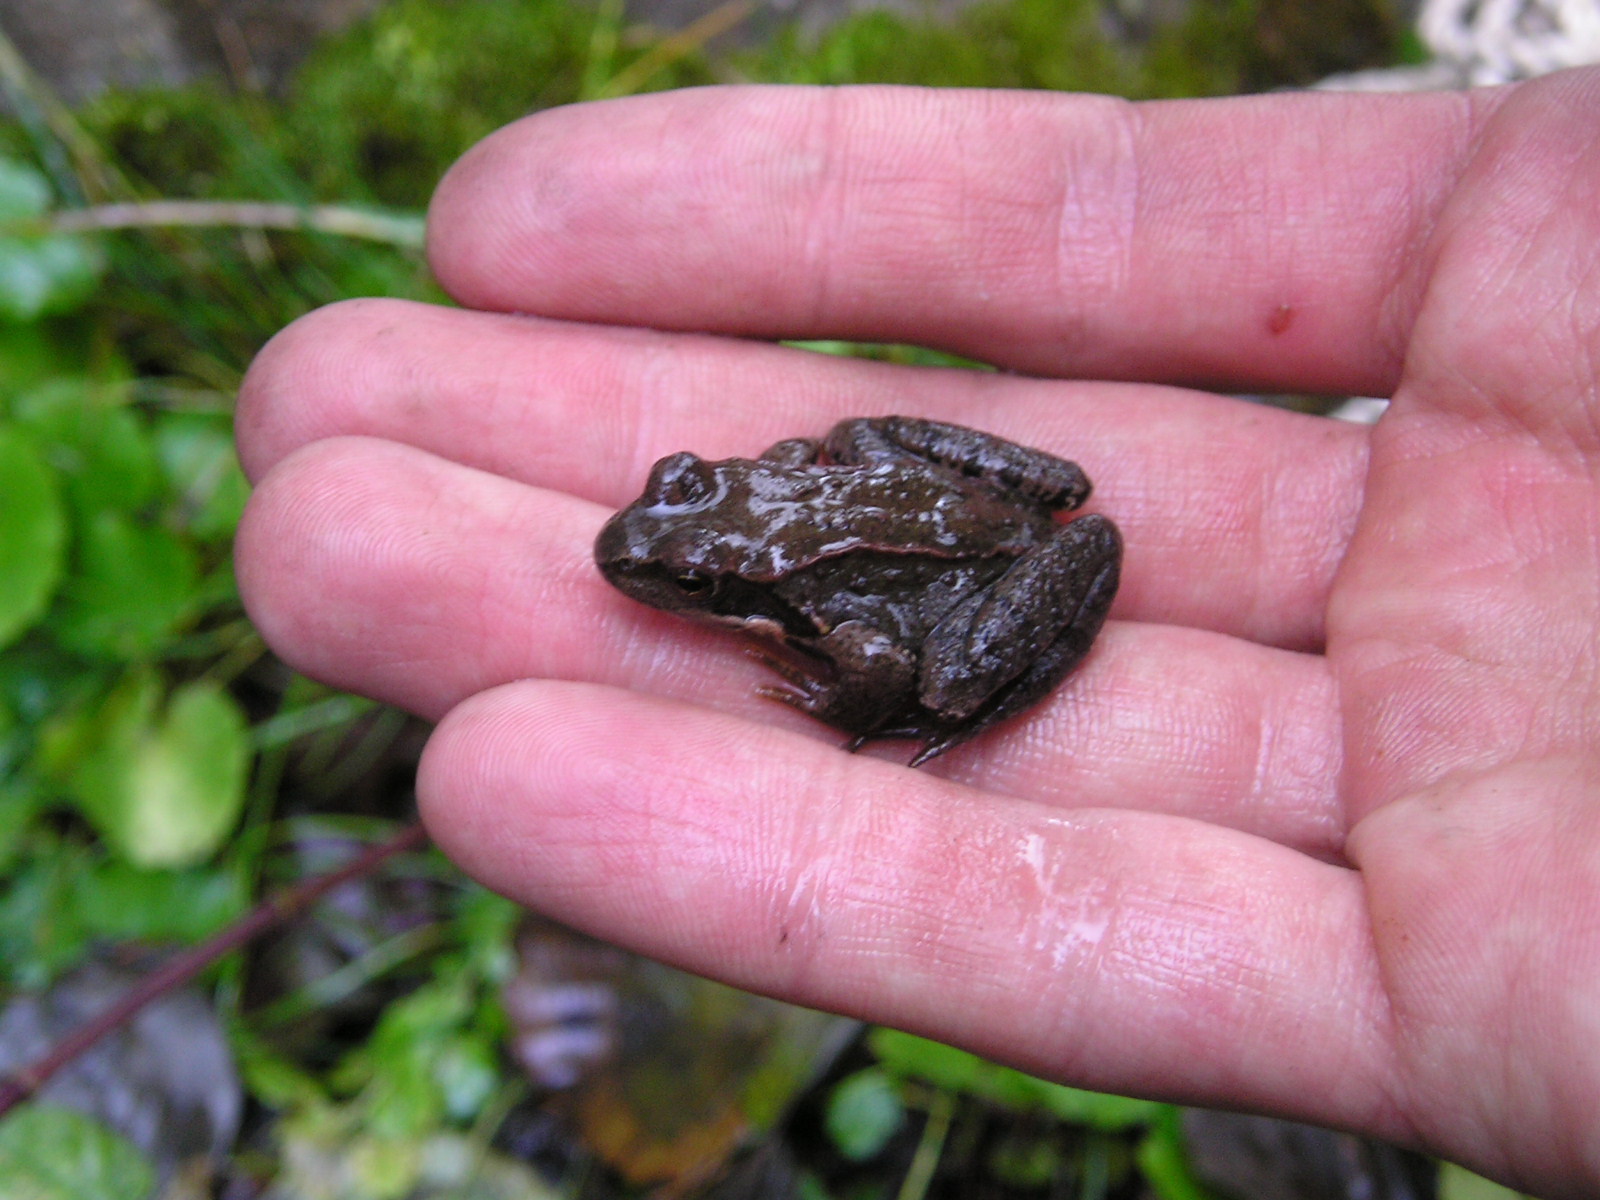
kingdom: Animalia
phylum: Chordata
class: Amphibia
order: Anura
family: Ranidae
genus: Rana
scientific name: Rana temporaria
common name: Common frog
